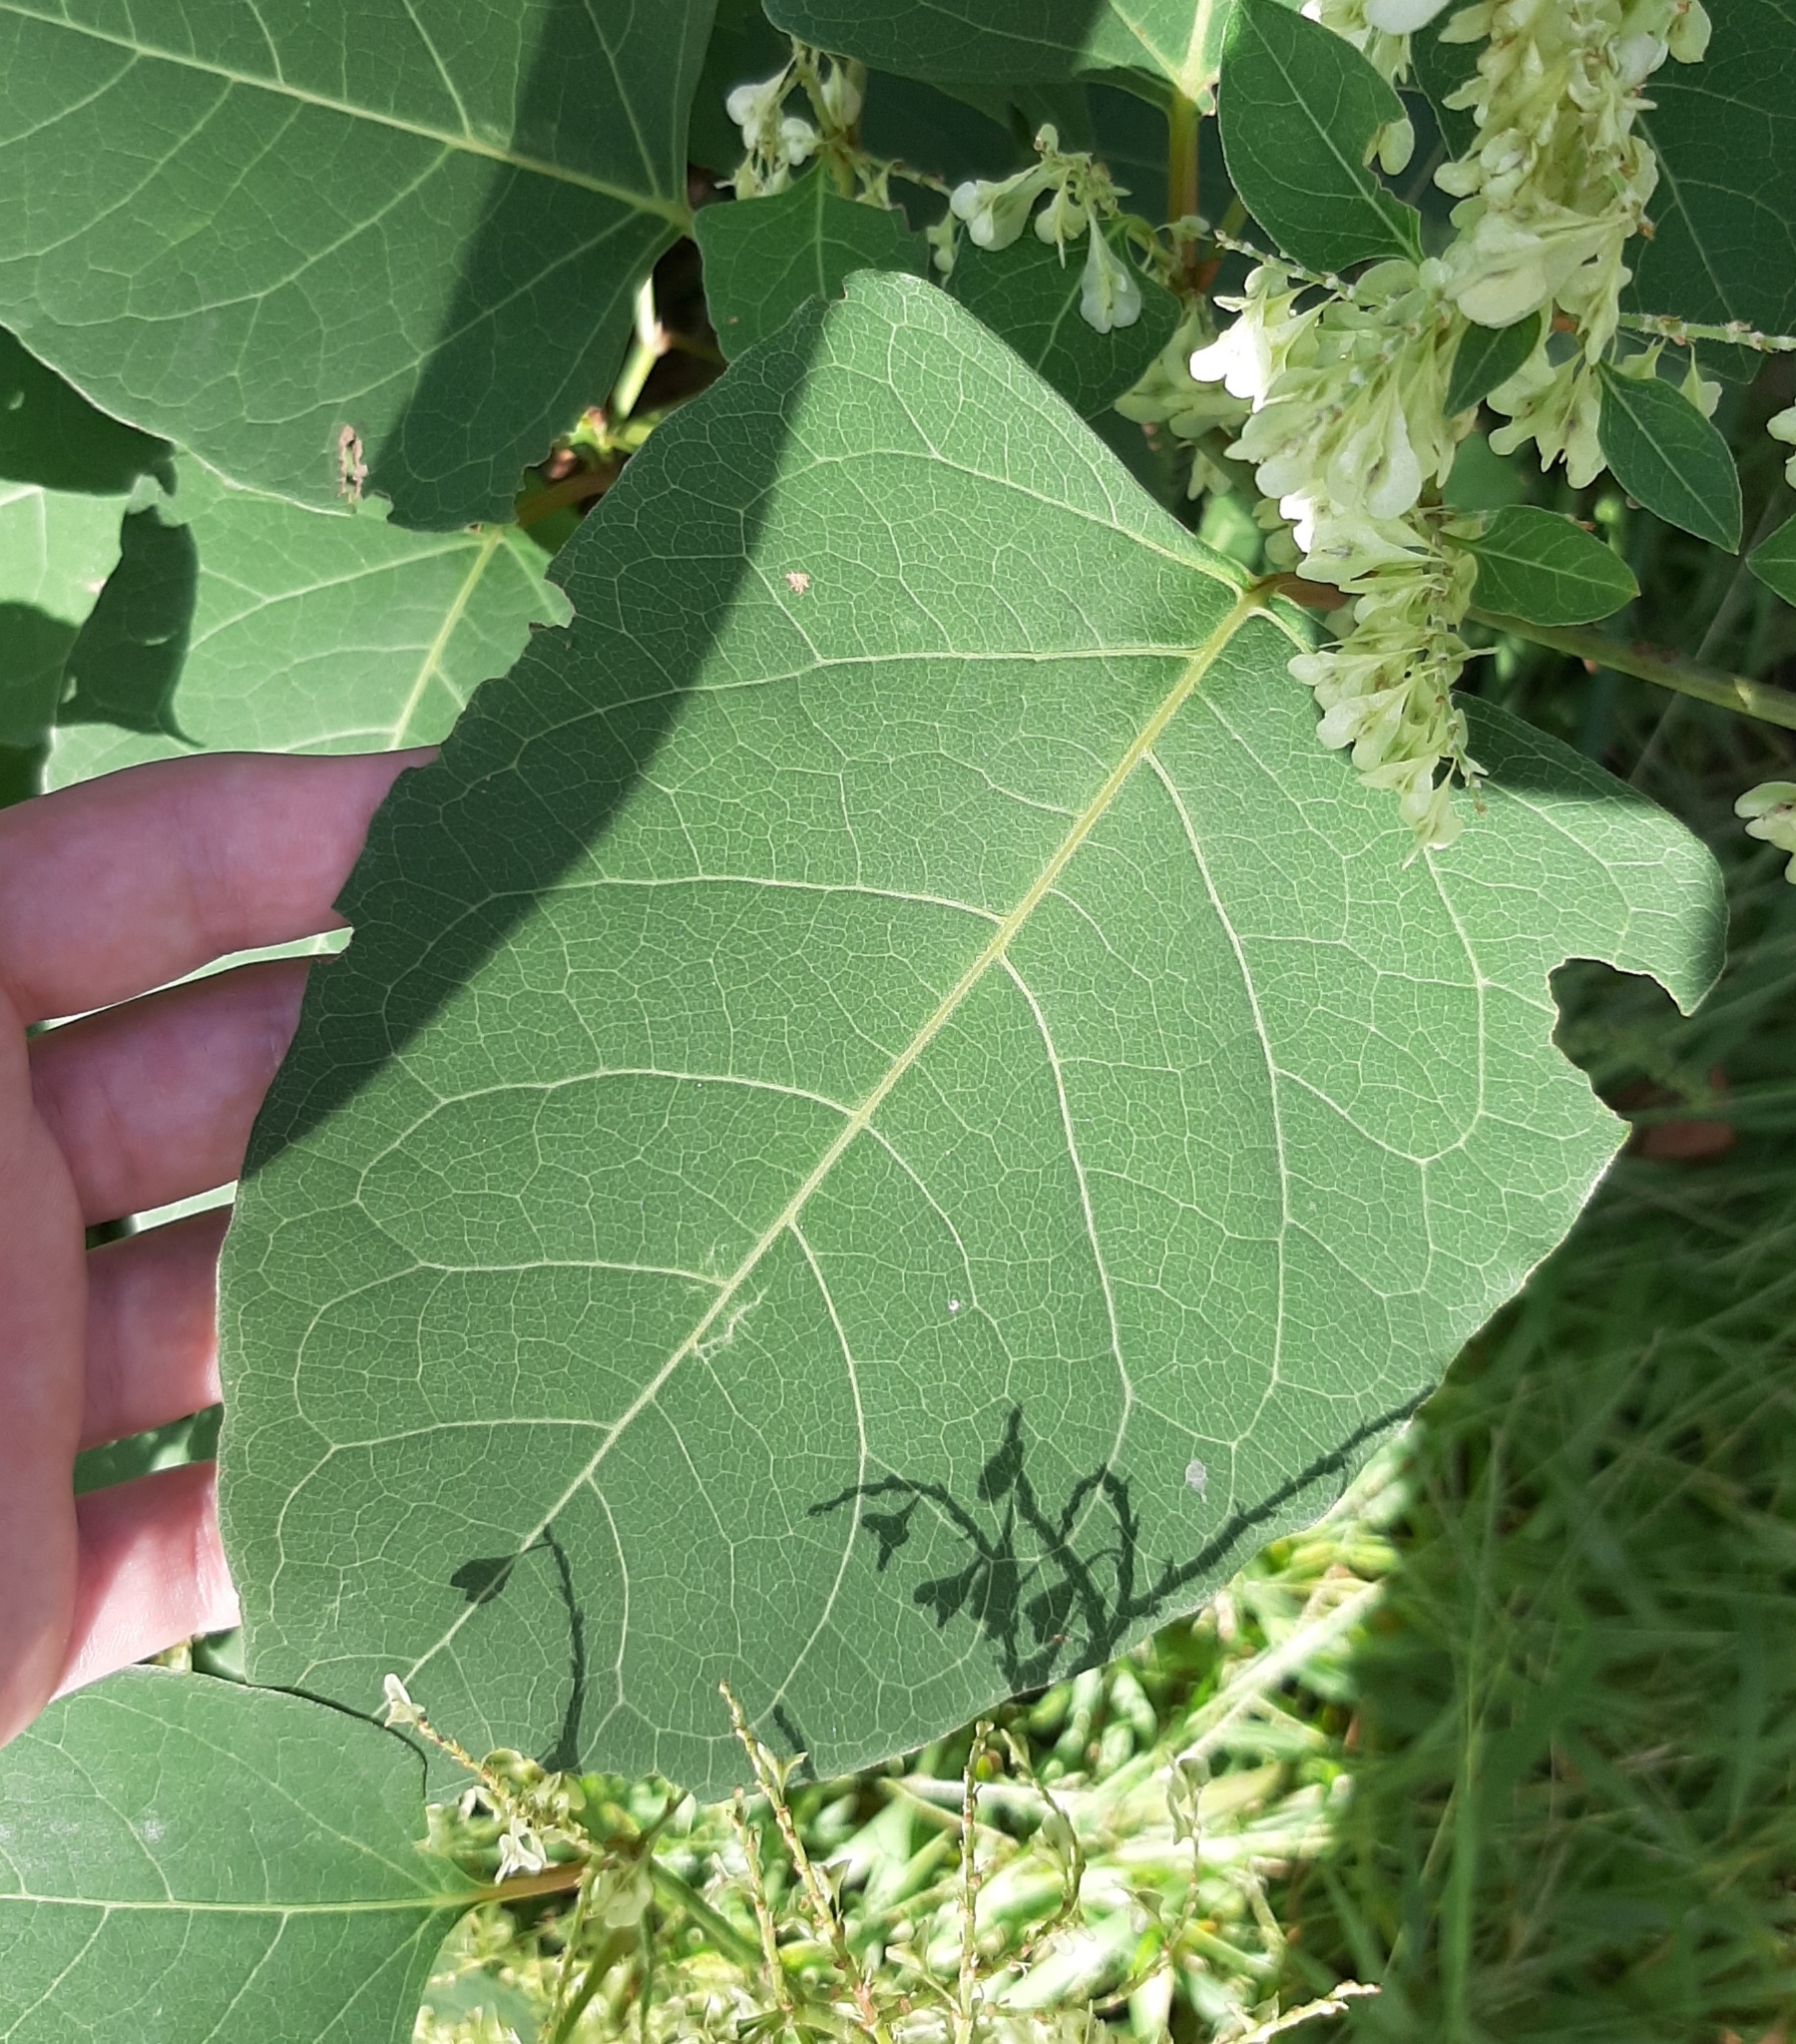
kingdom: Plantae
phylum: Tracheophyta
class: Magnoliopsida
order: Caryophyllales
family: Polygonaceae
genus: Reynoutria
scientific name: Reynoutria japonica
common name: Japanese knotweed
